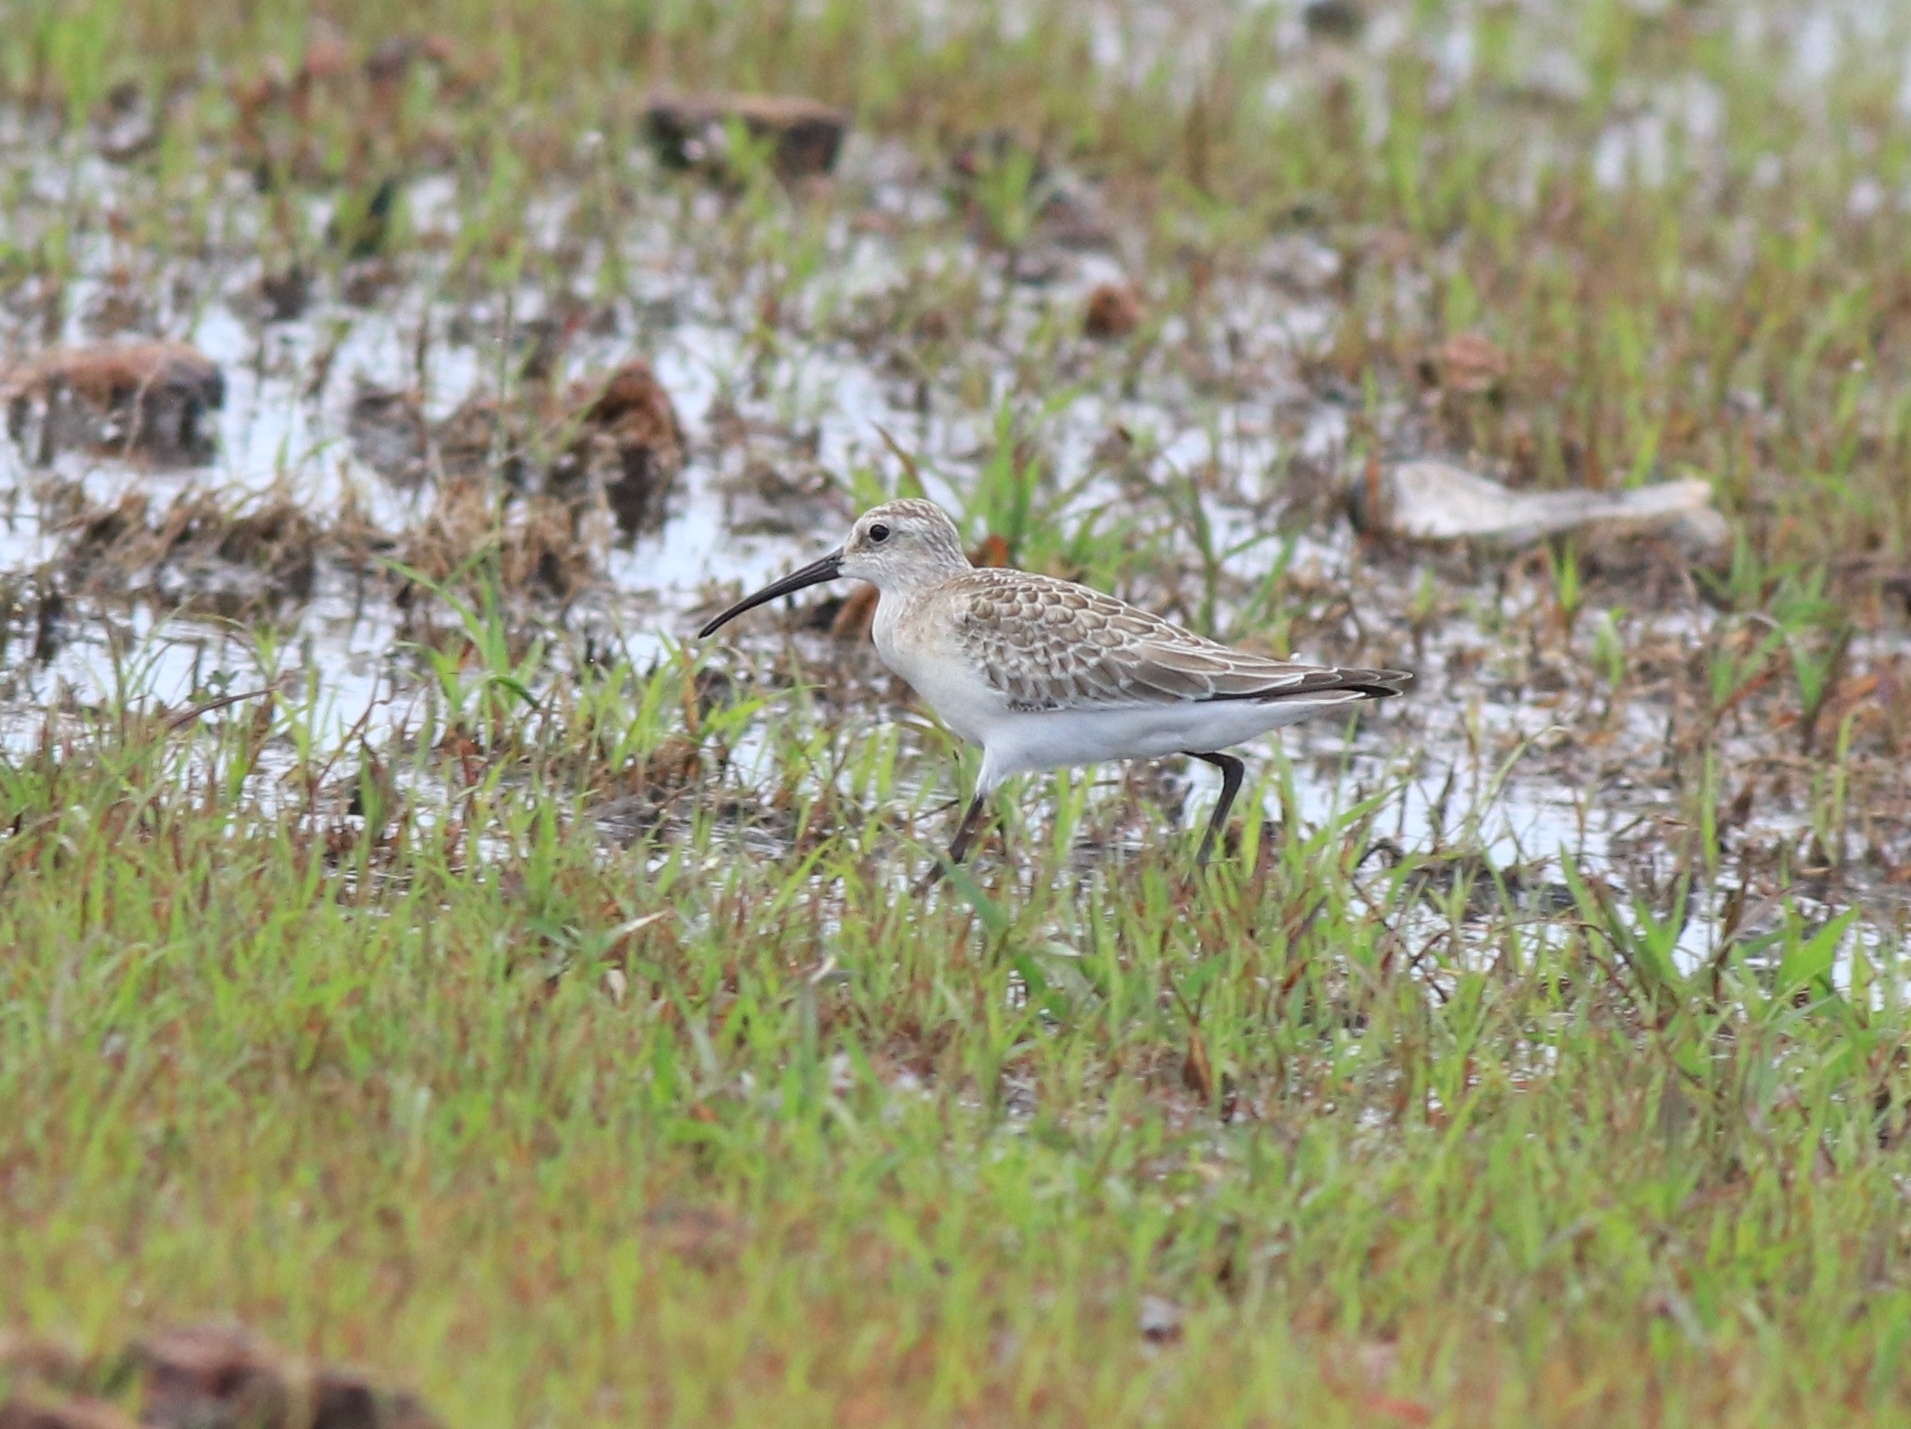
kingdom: Animalia
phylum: Chordata
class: Aves
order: Charadriiformes
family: Scolopacidae
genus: Calidris
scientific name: Calidris ferruginea
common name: Curlew sandpiper
